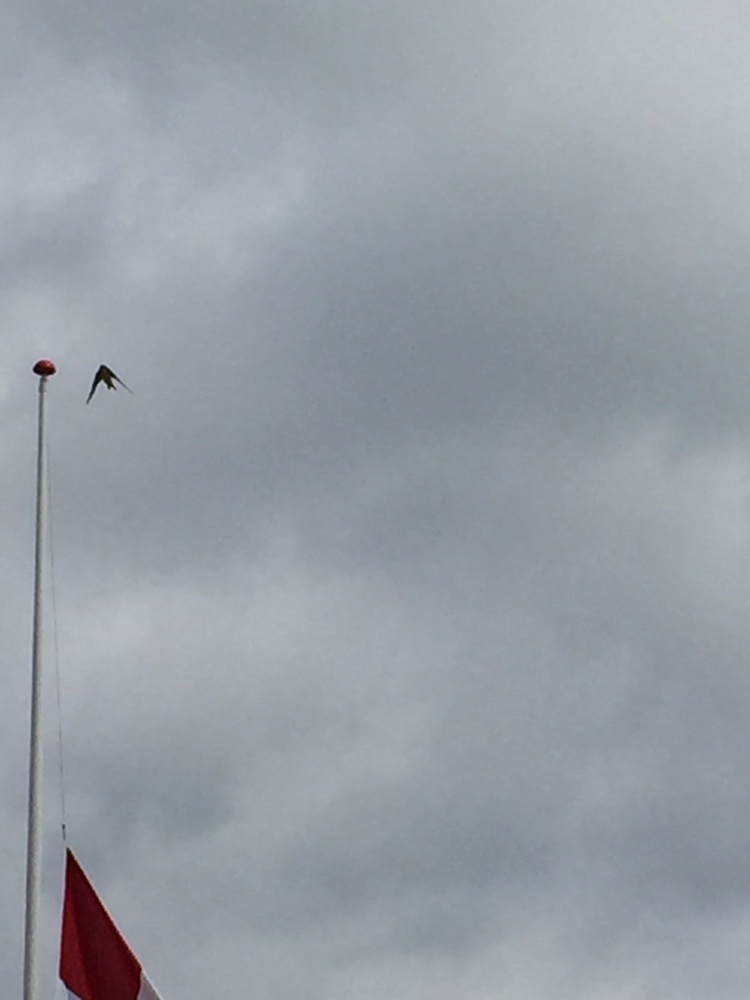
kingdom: Animalia
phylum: Chordata
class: Aves
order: Passeriformes
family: Hirundinidae
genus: Delichon
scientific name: Delichon urbicum
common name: Common house martin
